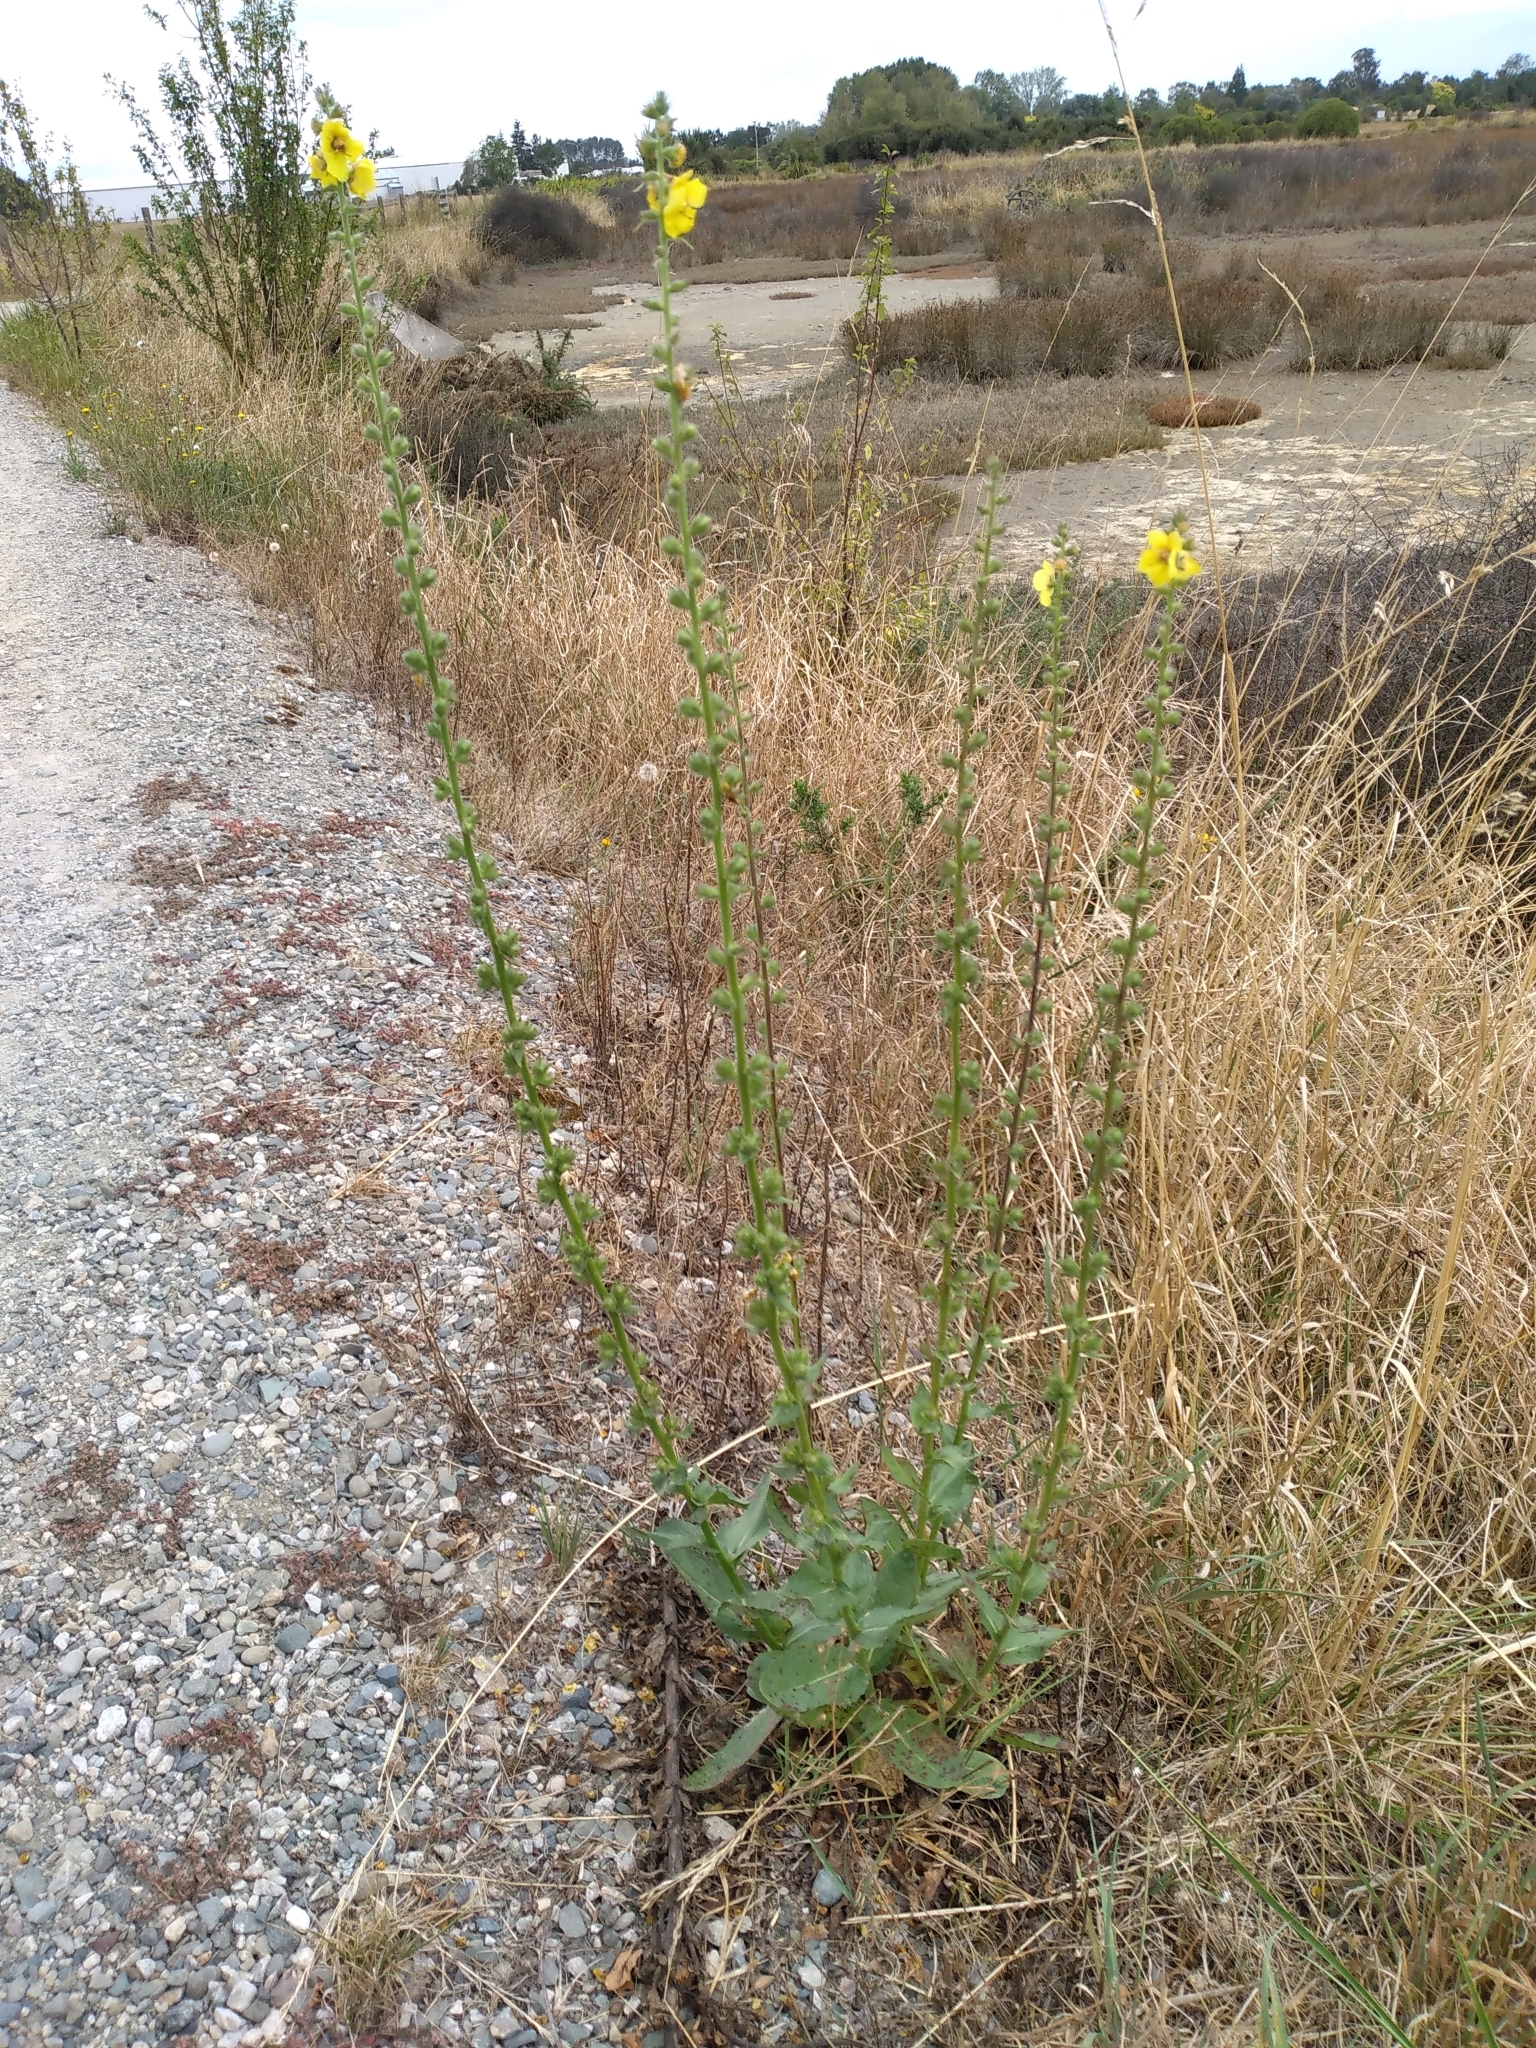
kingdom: Plantae
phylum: Tracheophyta
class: Magnoliopsida
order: Lamiales
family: Scrophulariaceae
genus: Verbascum
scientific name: Verbascum virgatum
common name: Twiggy mullein
